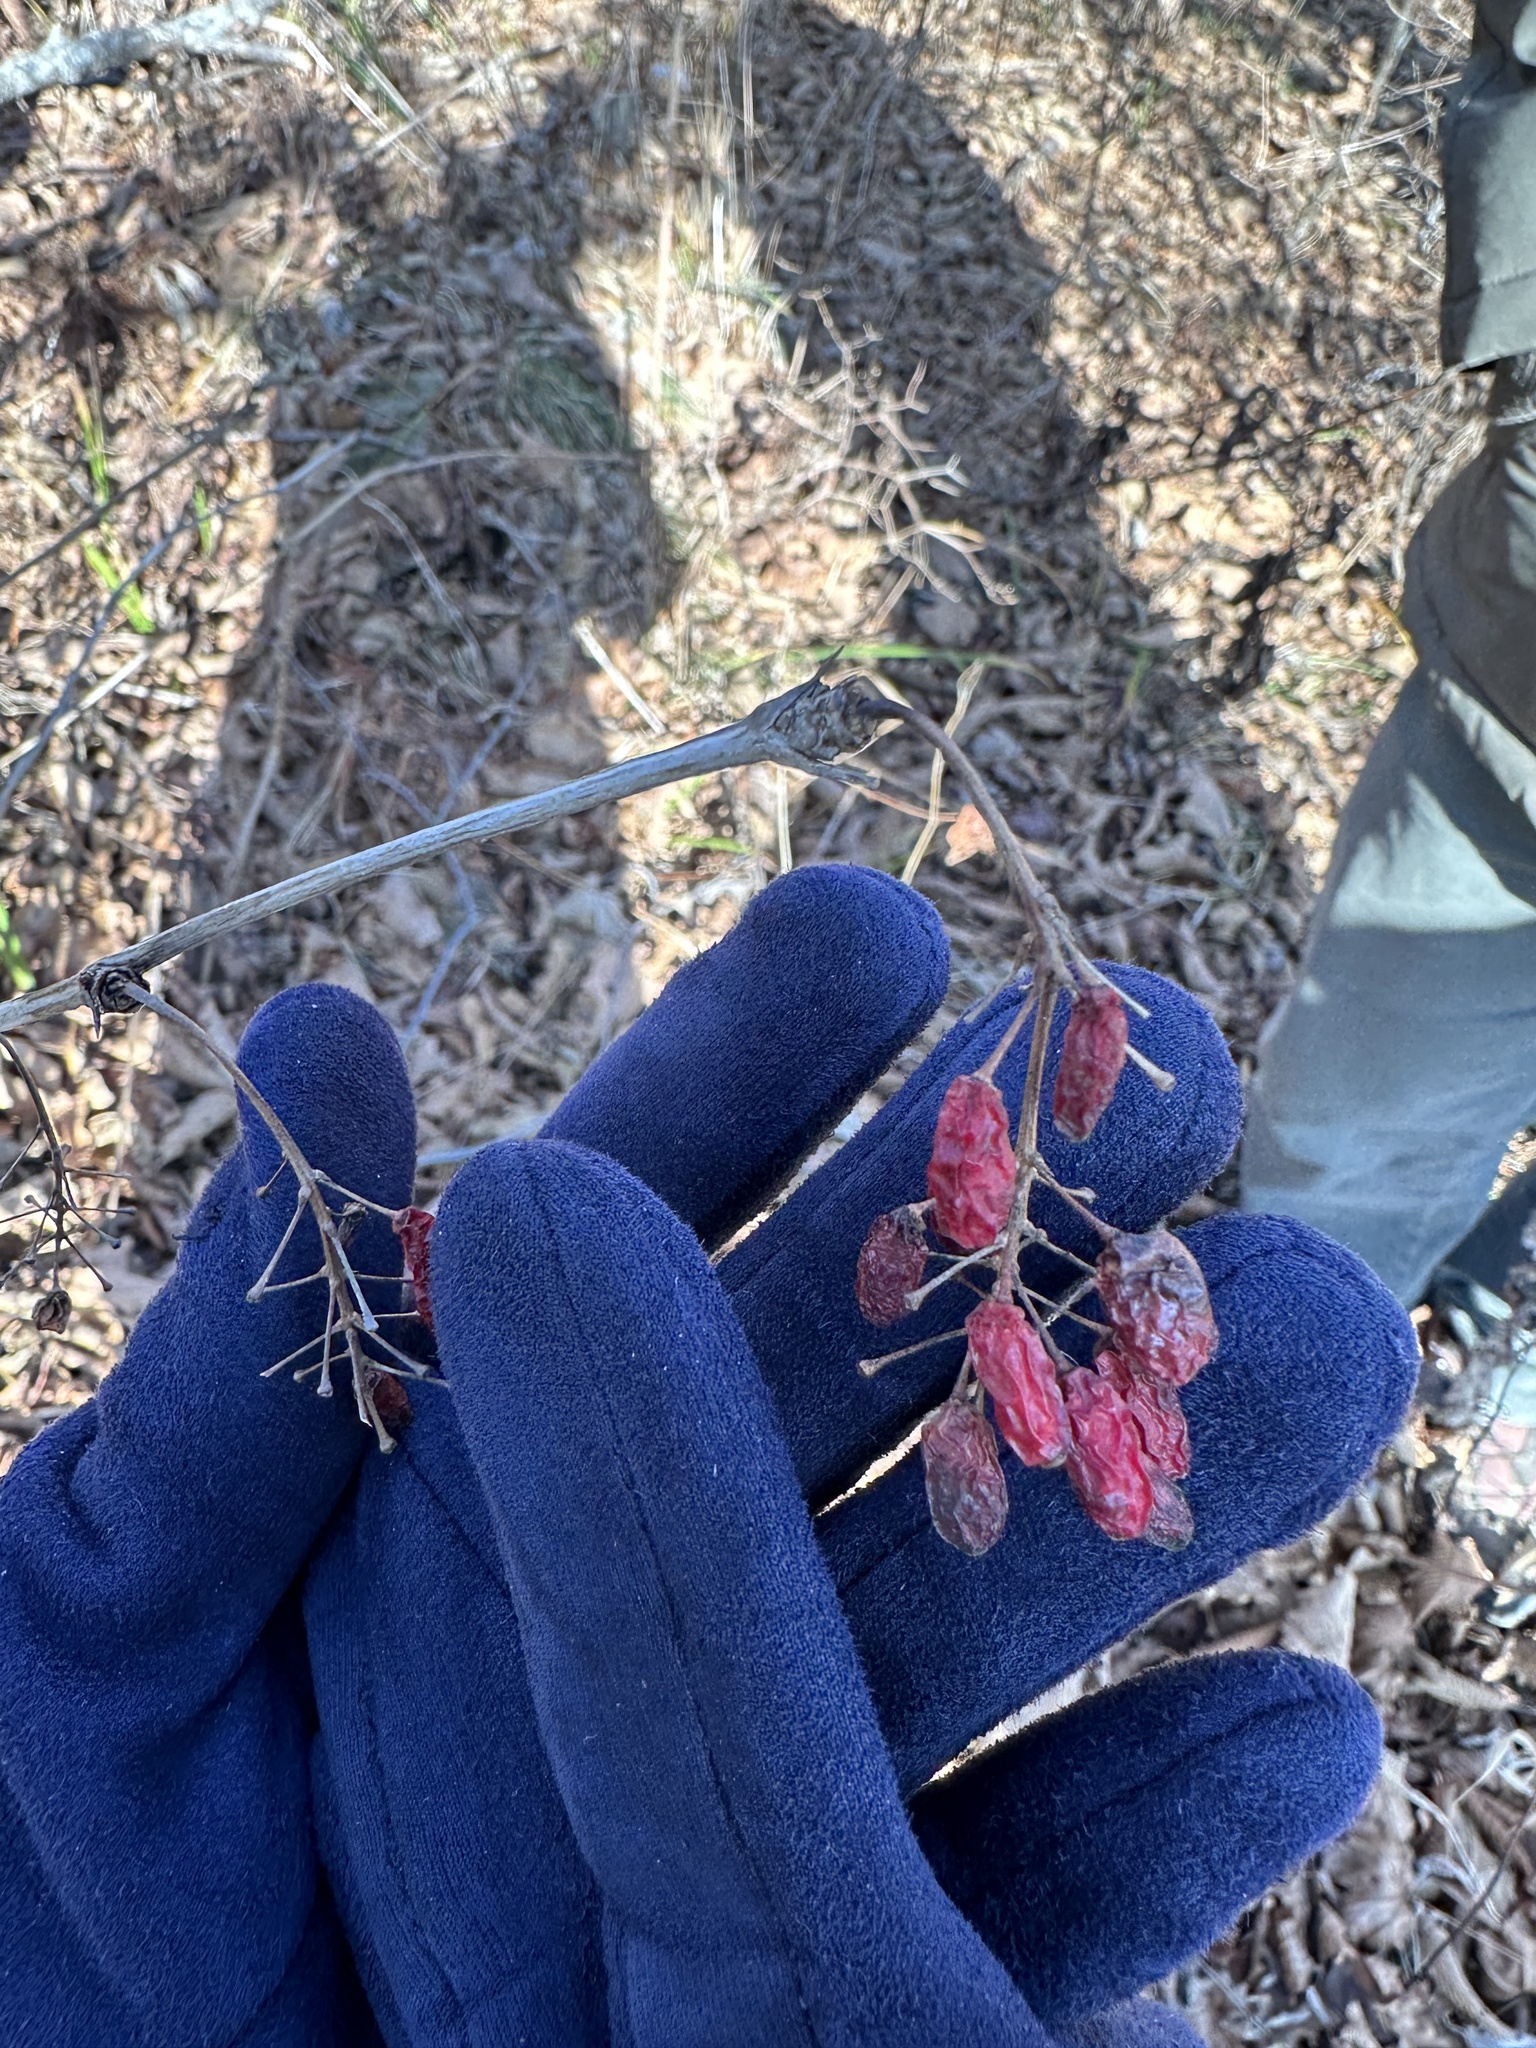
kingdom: Plantae
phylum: Tracheophyta
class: Magnoliopsida
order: Ranunculales
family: Berberidaceae
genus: Berberis
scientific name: Berberis amurensis
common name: Amur barberry
